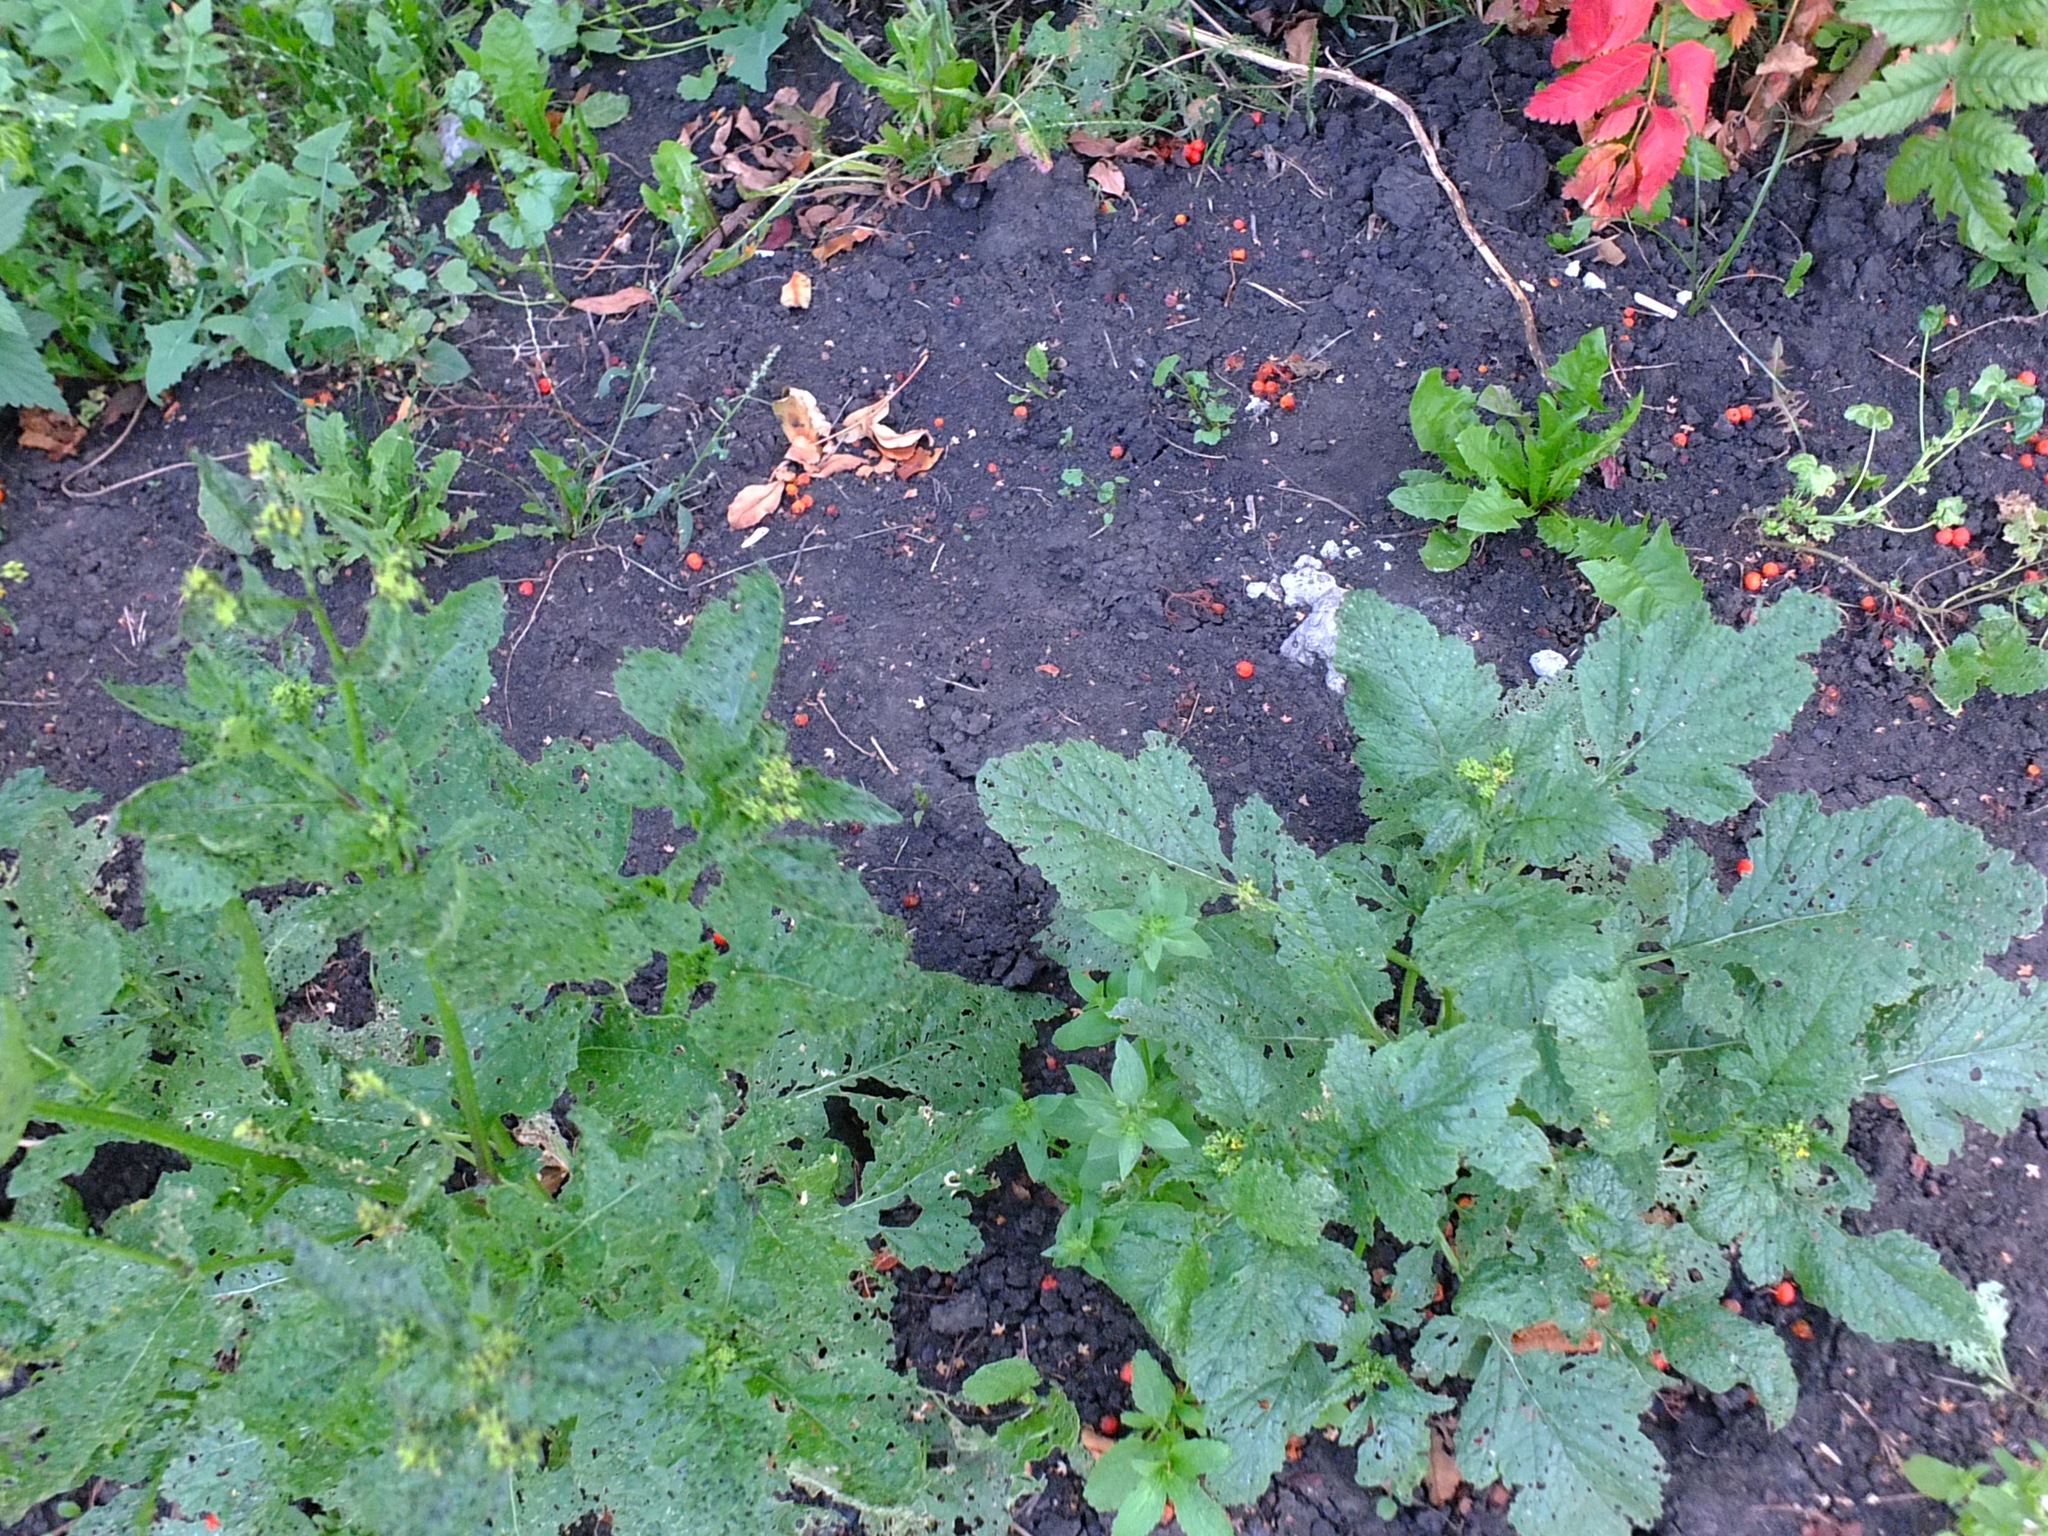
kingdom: Plantae
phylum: Tracheophyta
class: Magnoliopsida
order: Brassicales
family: Brassicaceae
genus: Sinapis
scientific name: Sinapis arvensis
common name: Charlock
